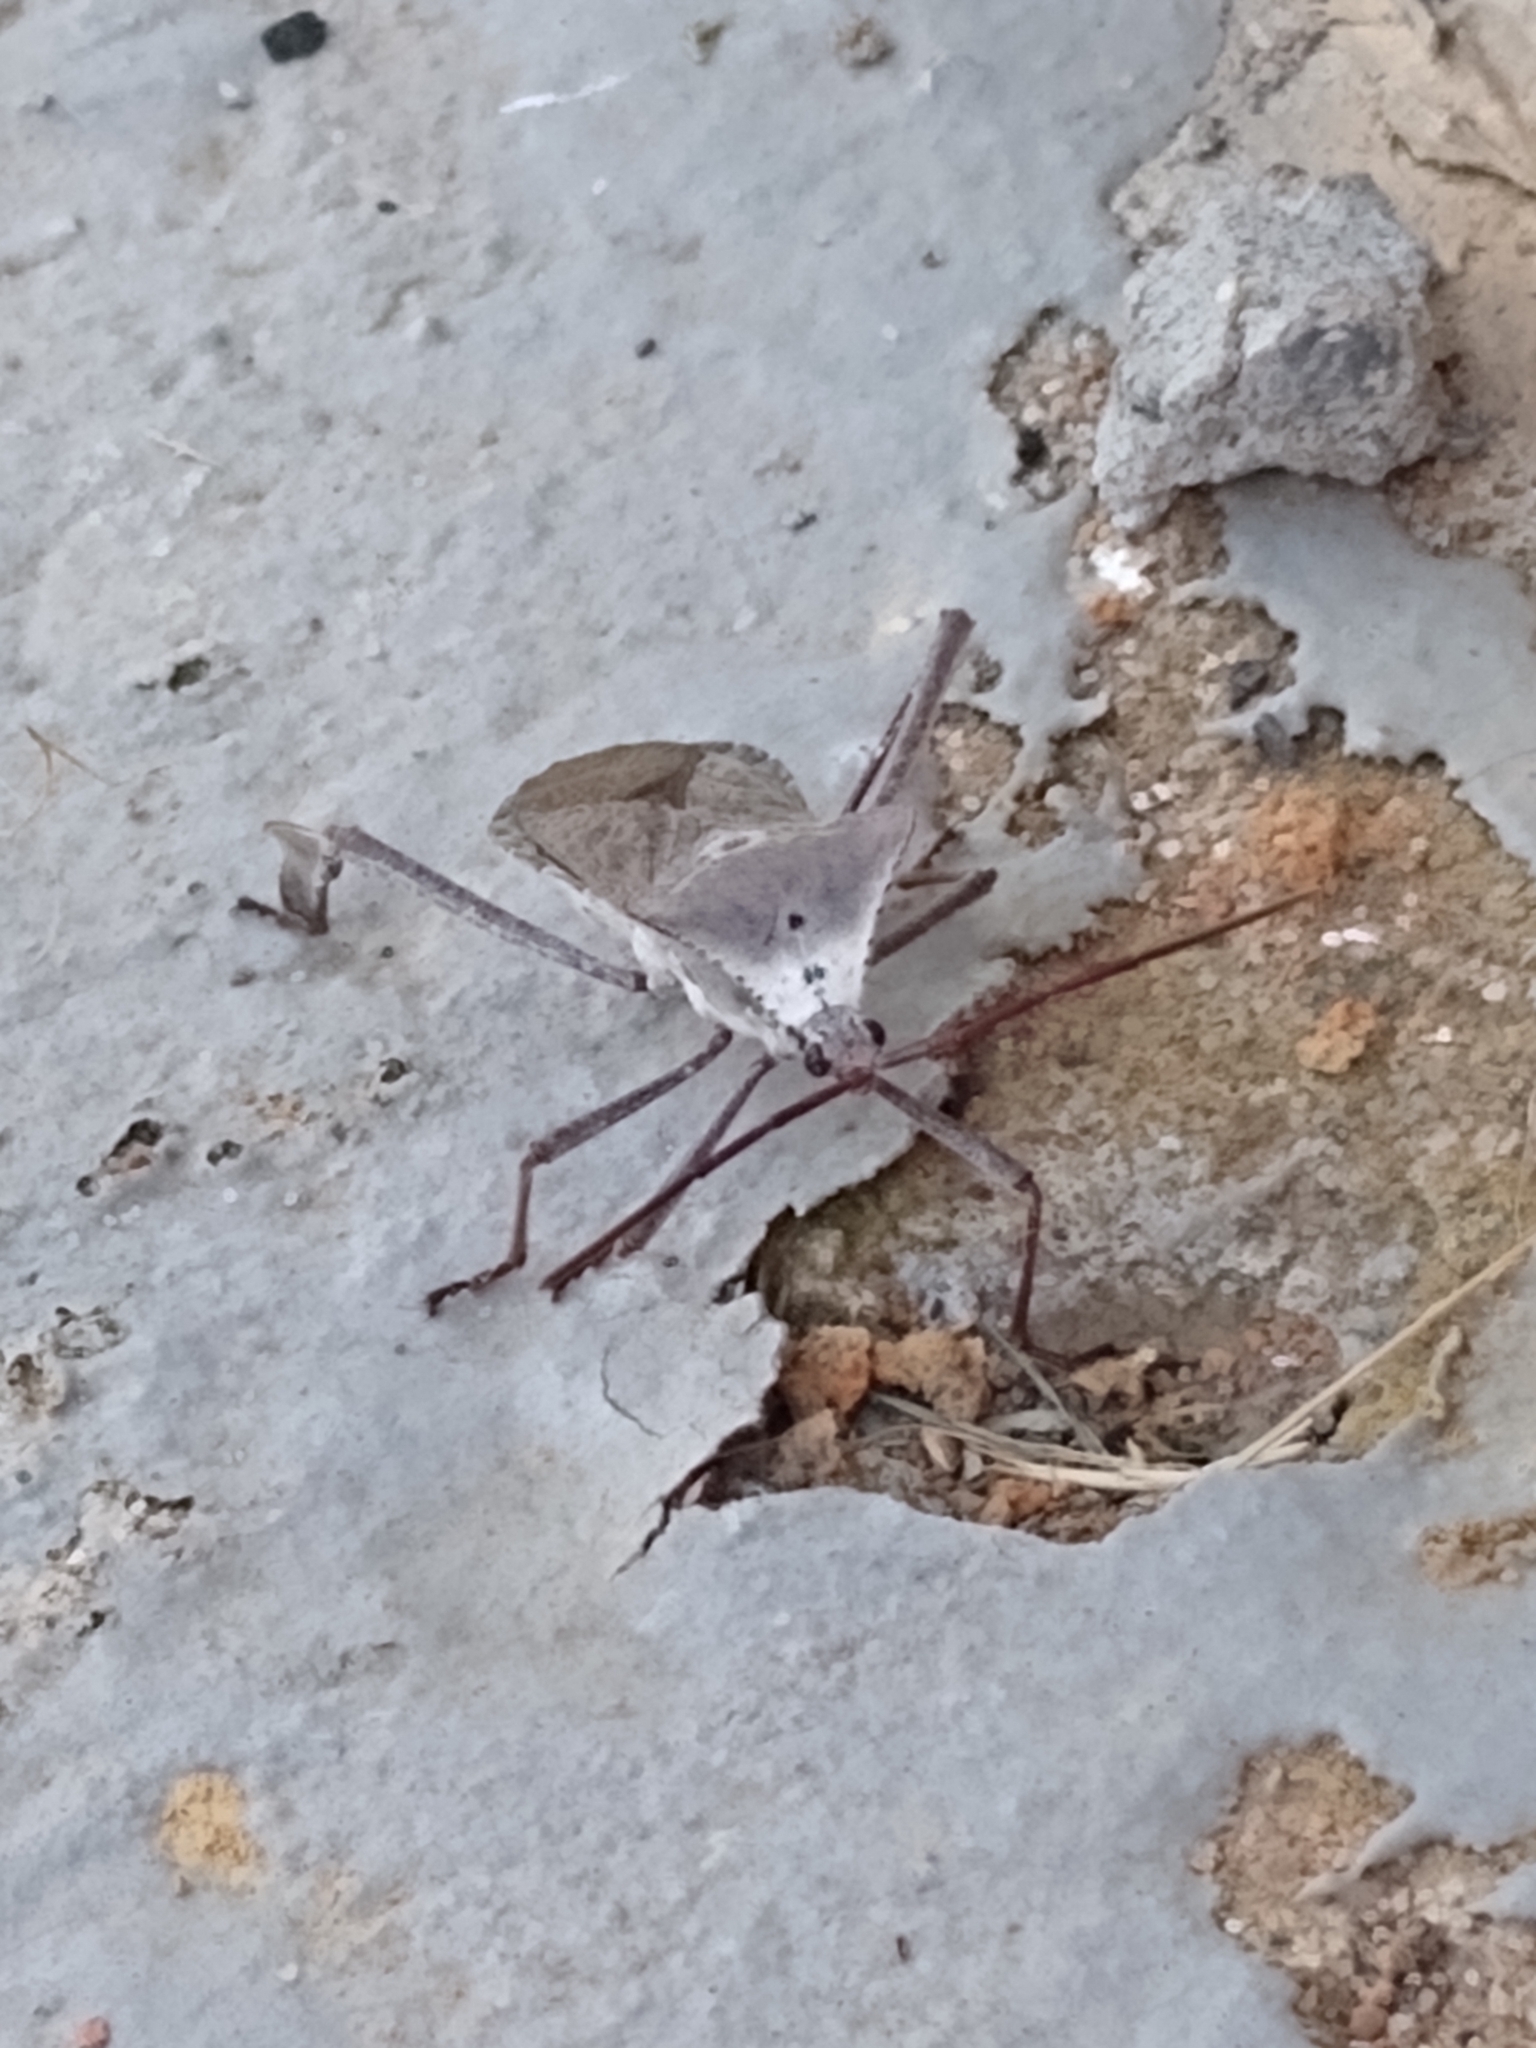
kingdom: Animalia
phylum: Arthropoda
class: Insecta
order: Hemiptera
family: Coreidae
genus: Acanthocephala
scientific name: Acanthocephala declivis
